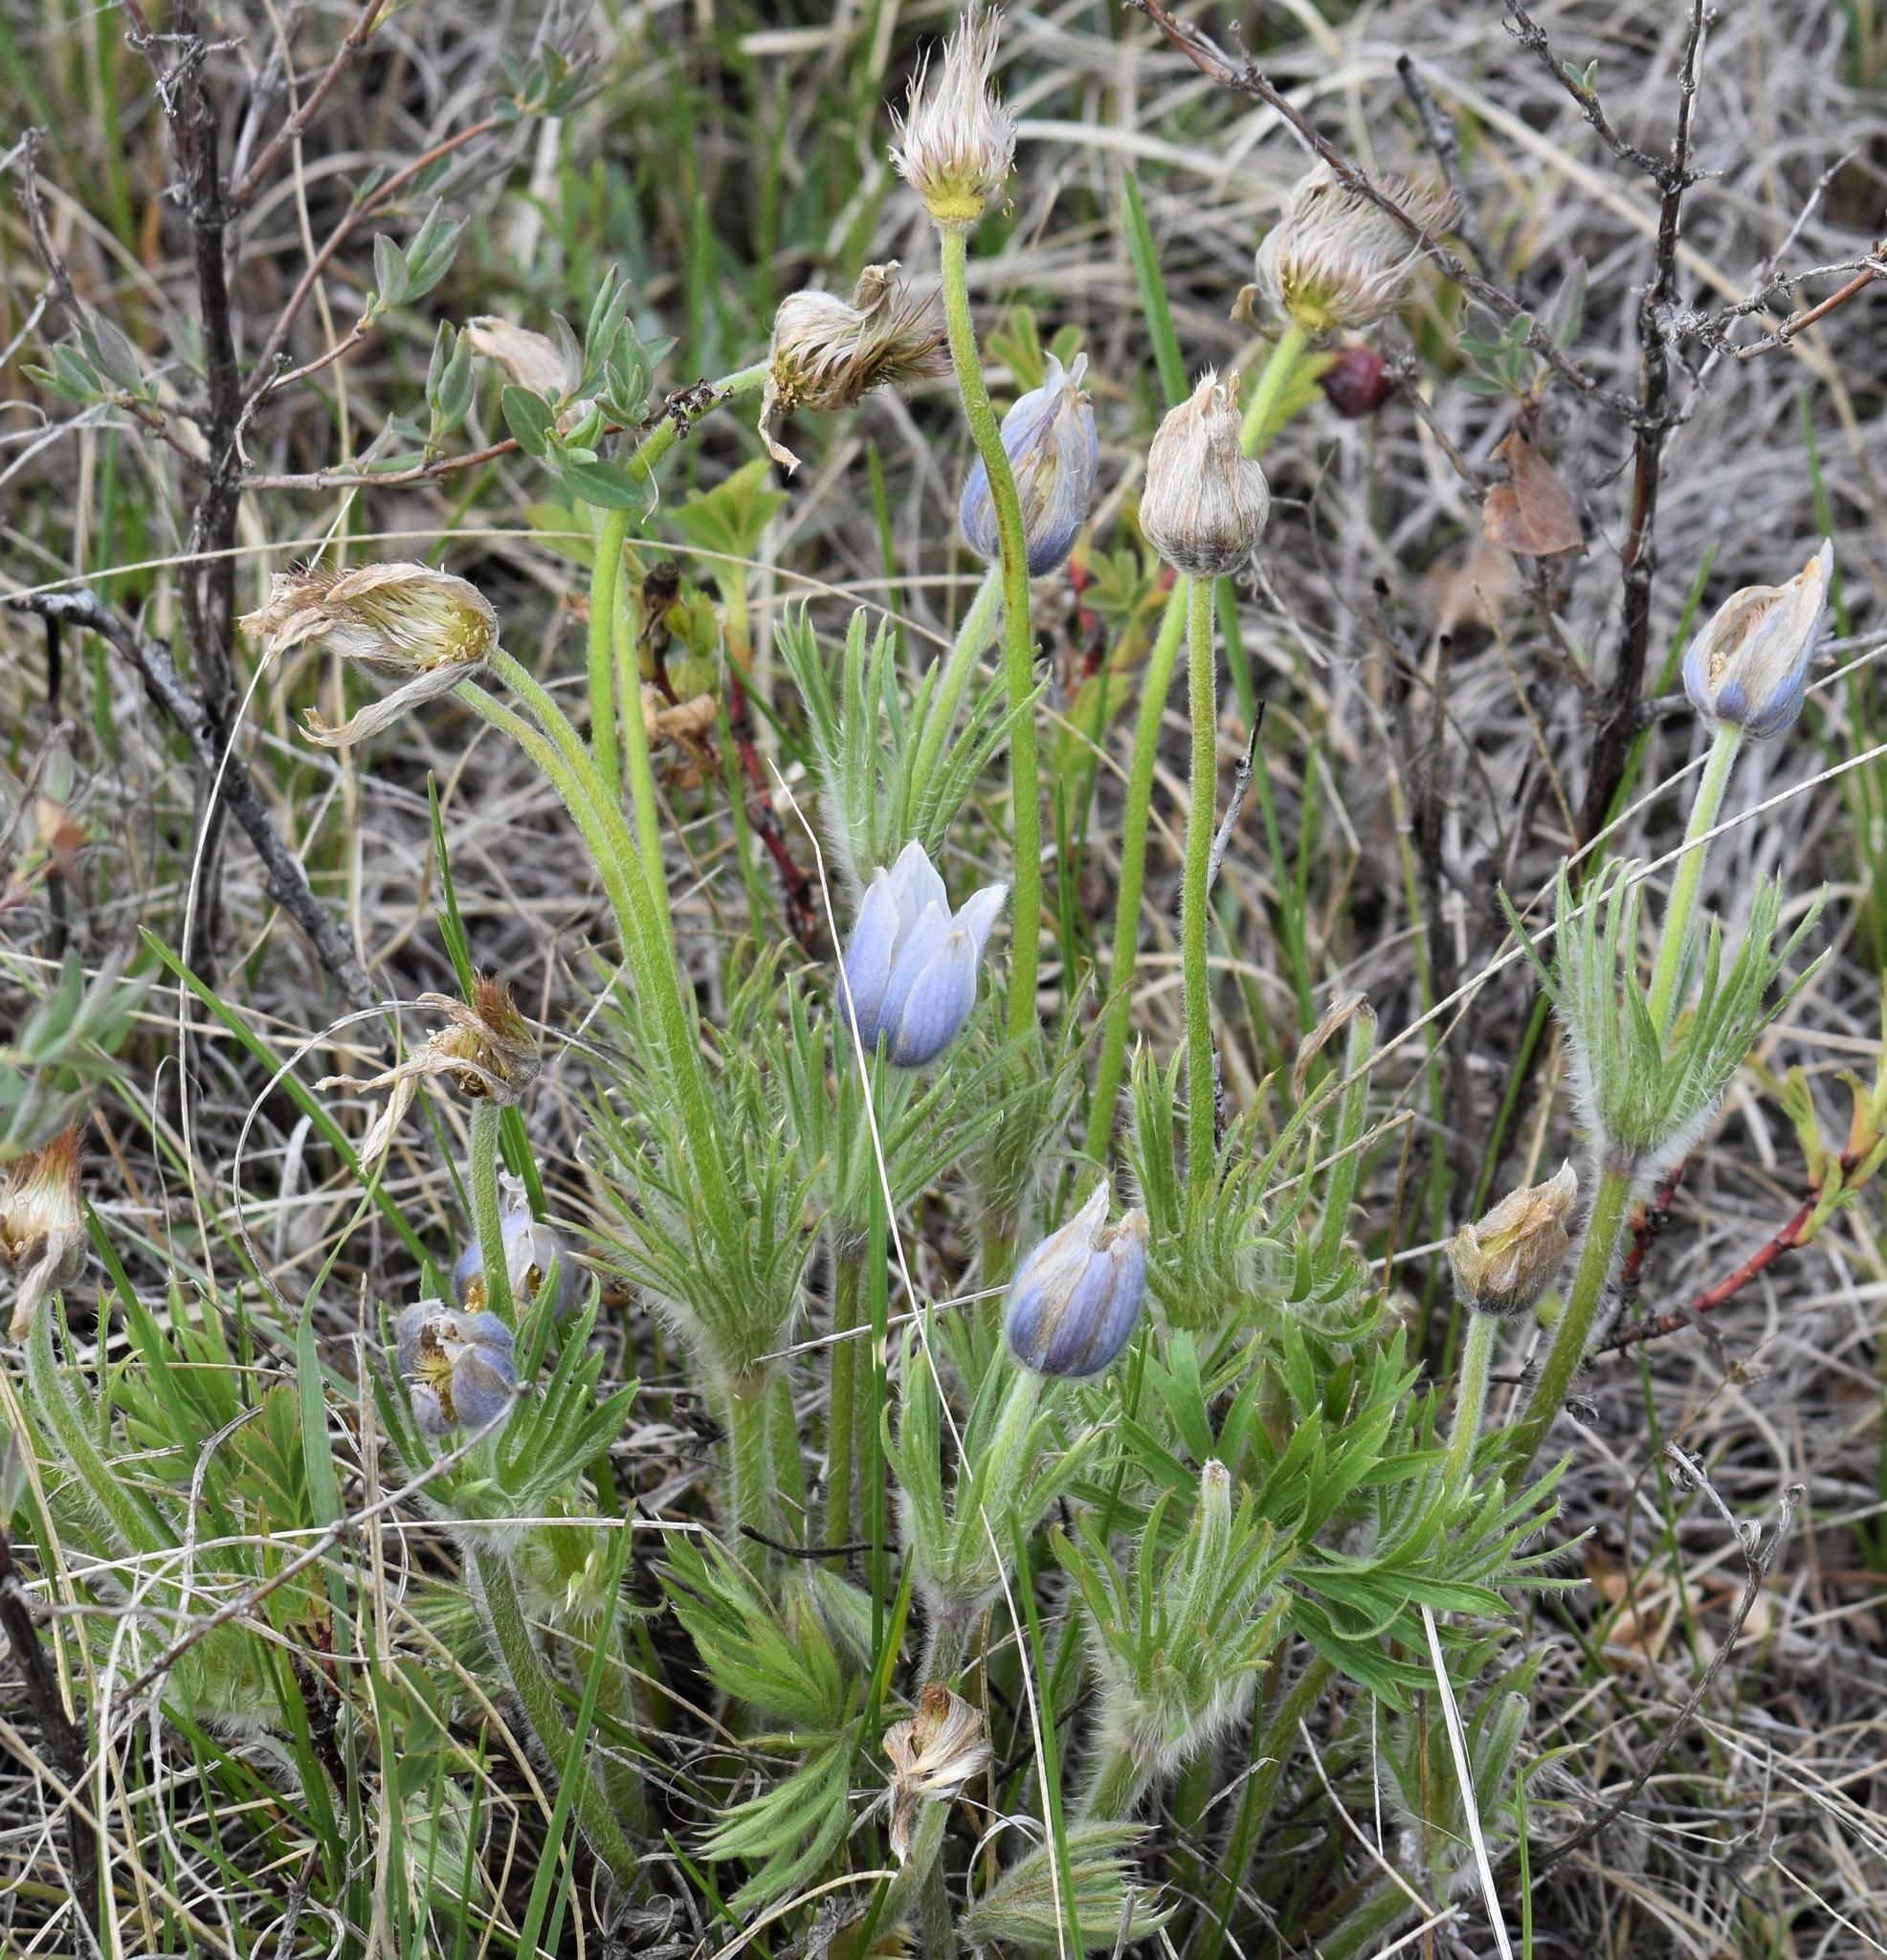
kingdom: Plantae
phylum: Tracheophyta
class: Magnoliopsida
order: Ranunculales
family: Ranunculaceae
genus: Pulsatilla
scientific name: Pulsatilla nuttalliana
